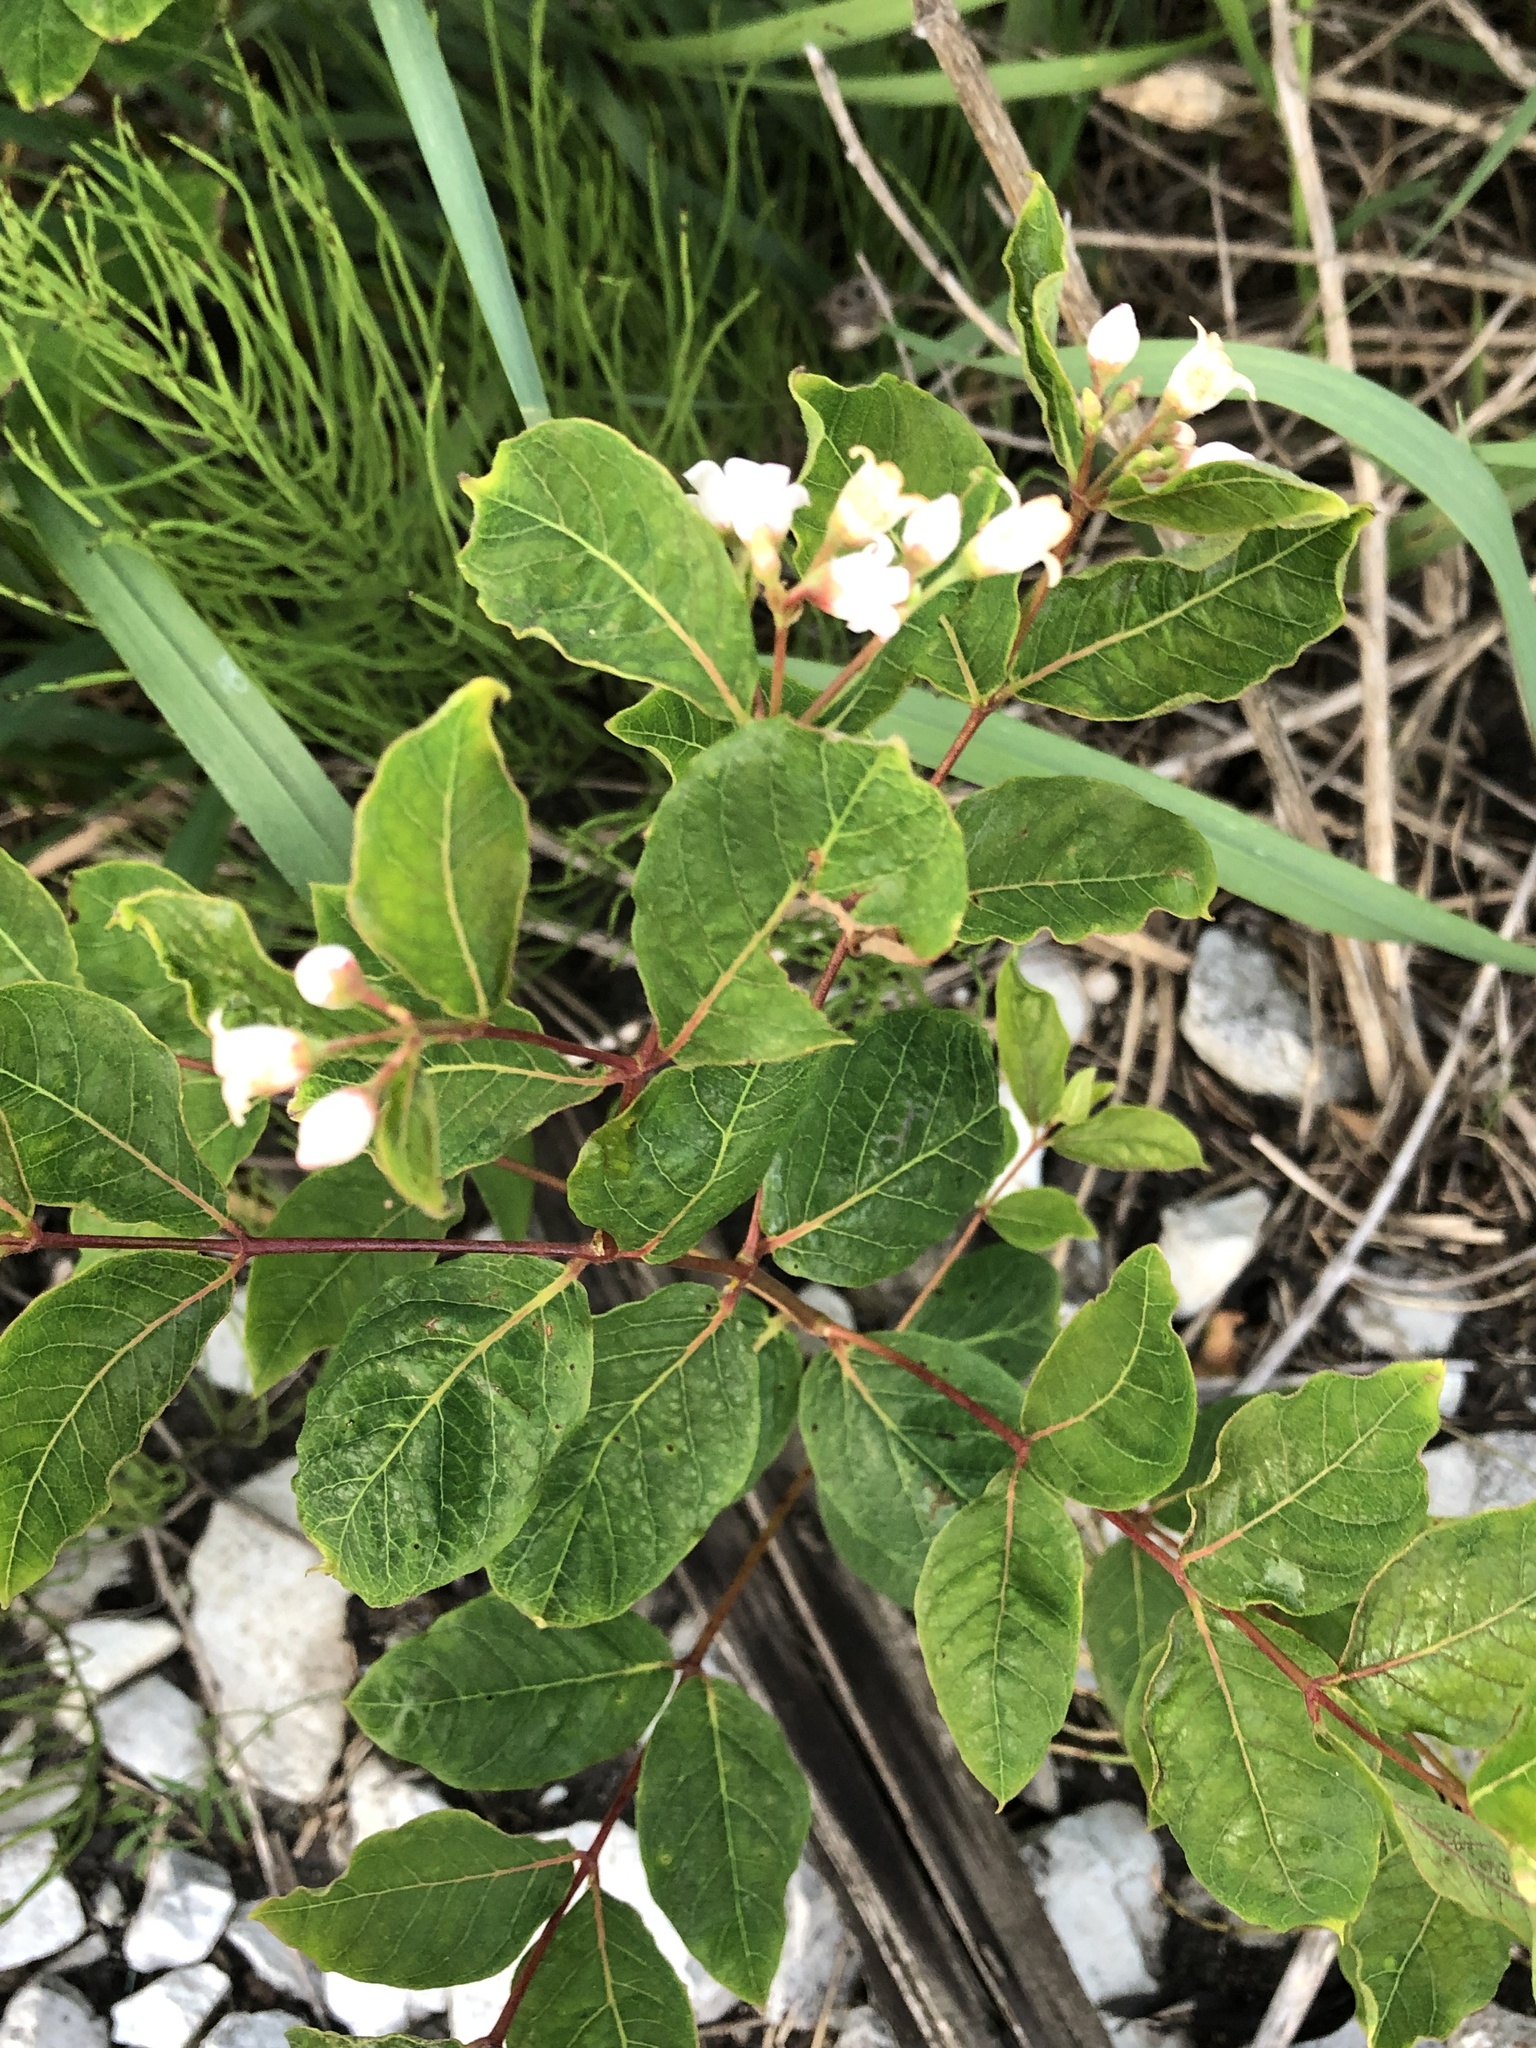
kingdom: Plantae
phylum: Tracheophyta
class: Magnoliopsida
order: Gentianales
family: Apocynaceae
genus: Apocynum
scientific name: Apocynum androsaemifolium
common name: Spreading dogbane
